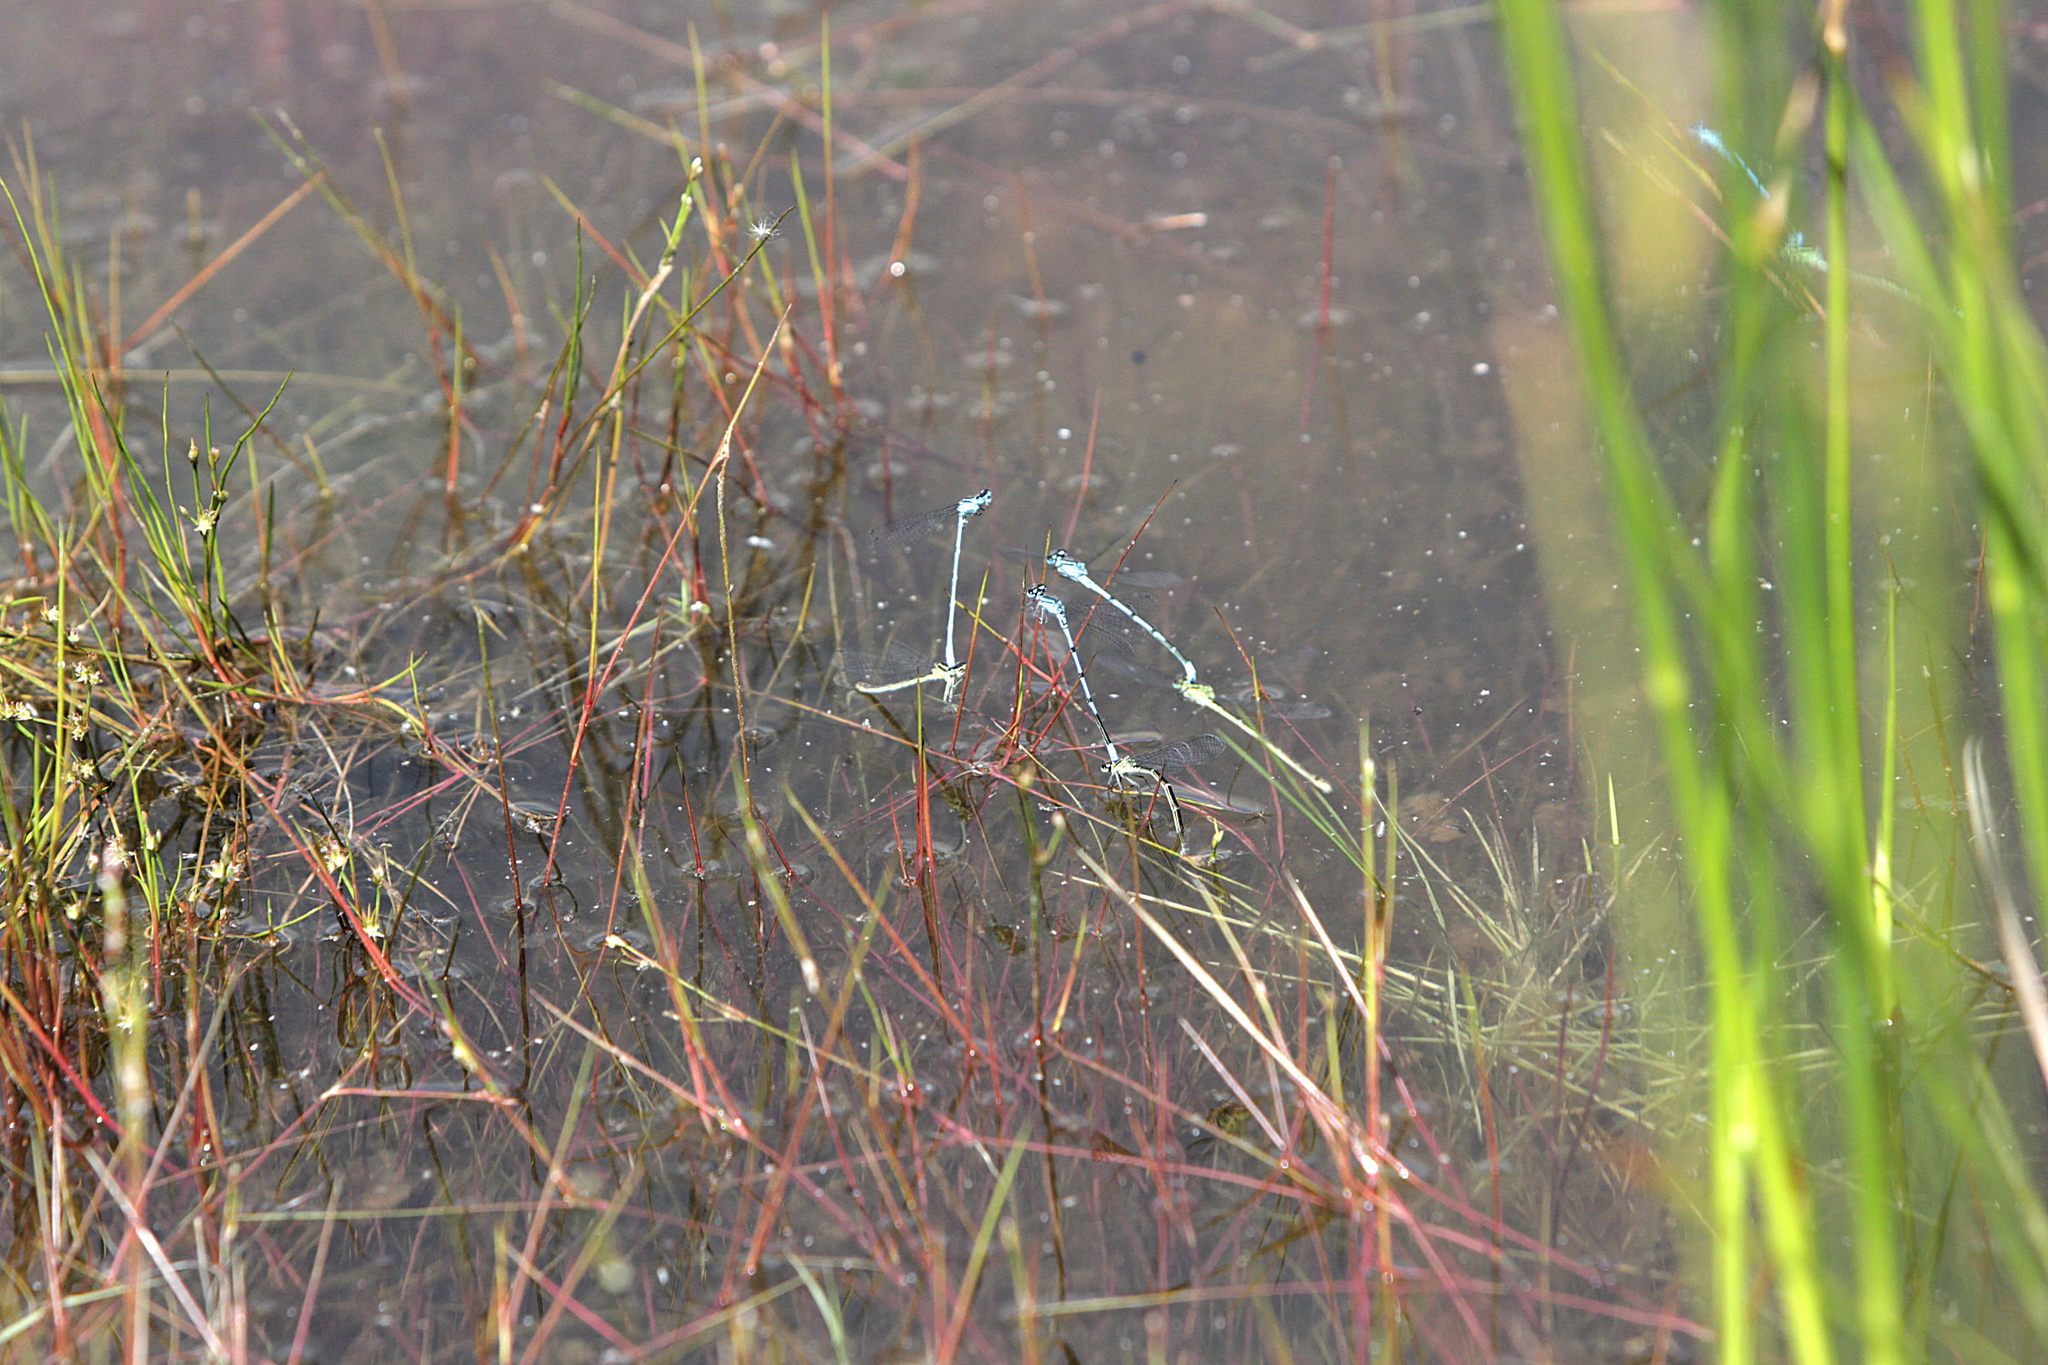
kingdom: Animalia
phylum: Arthropoda
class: Insecta
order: Odonata
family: Coenagrionidae
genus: Coenagrion
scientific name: Coenagrion puella
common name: Azure damselfly
